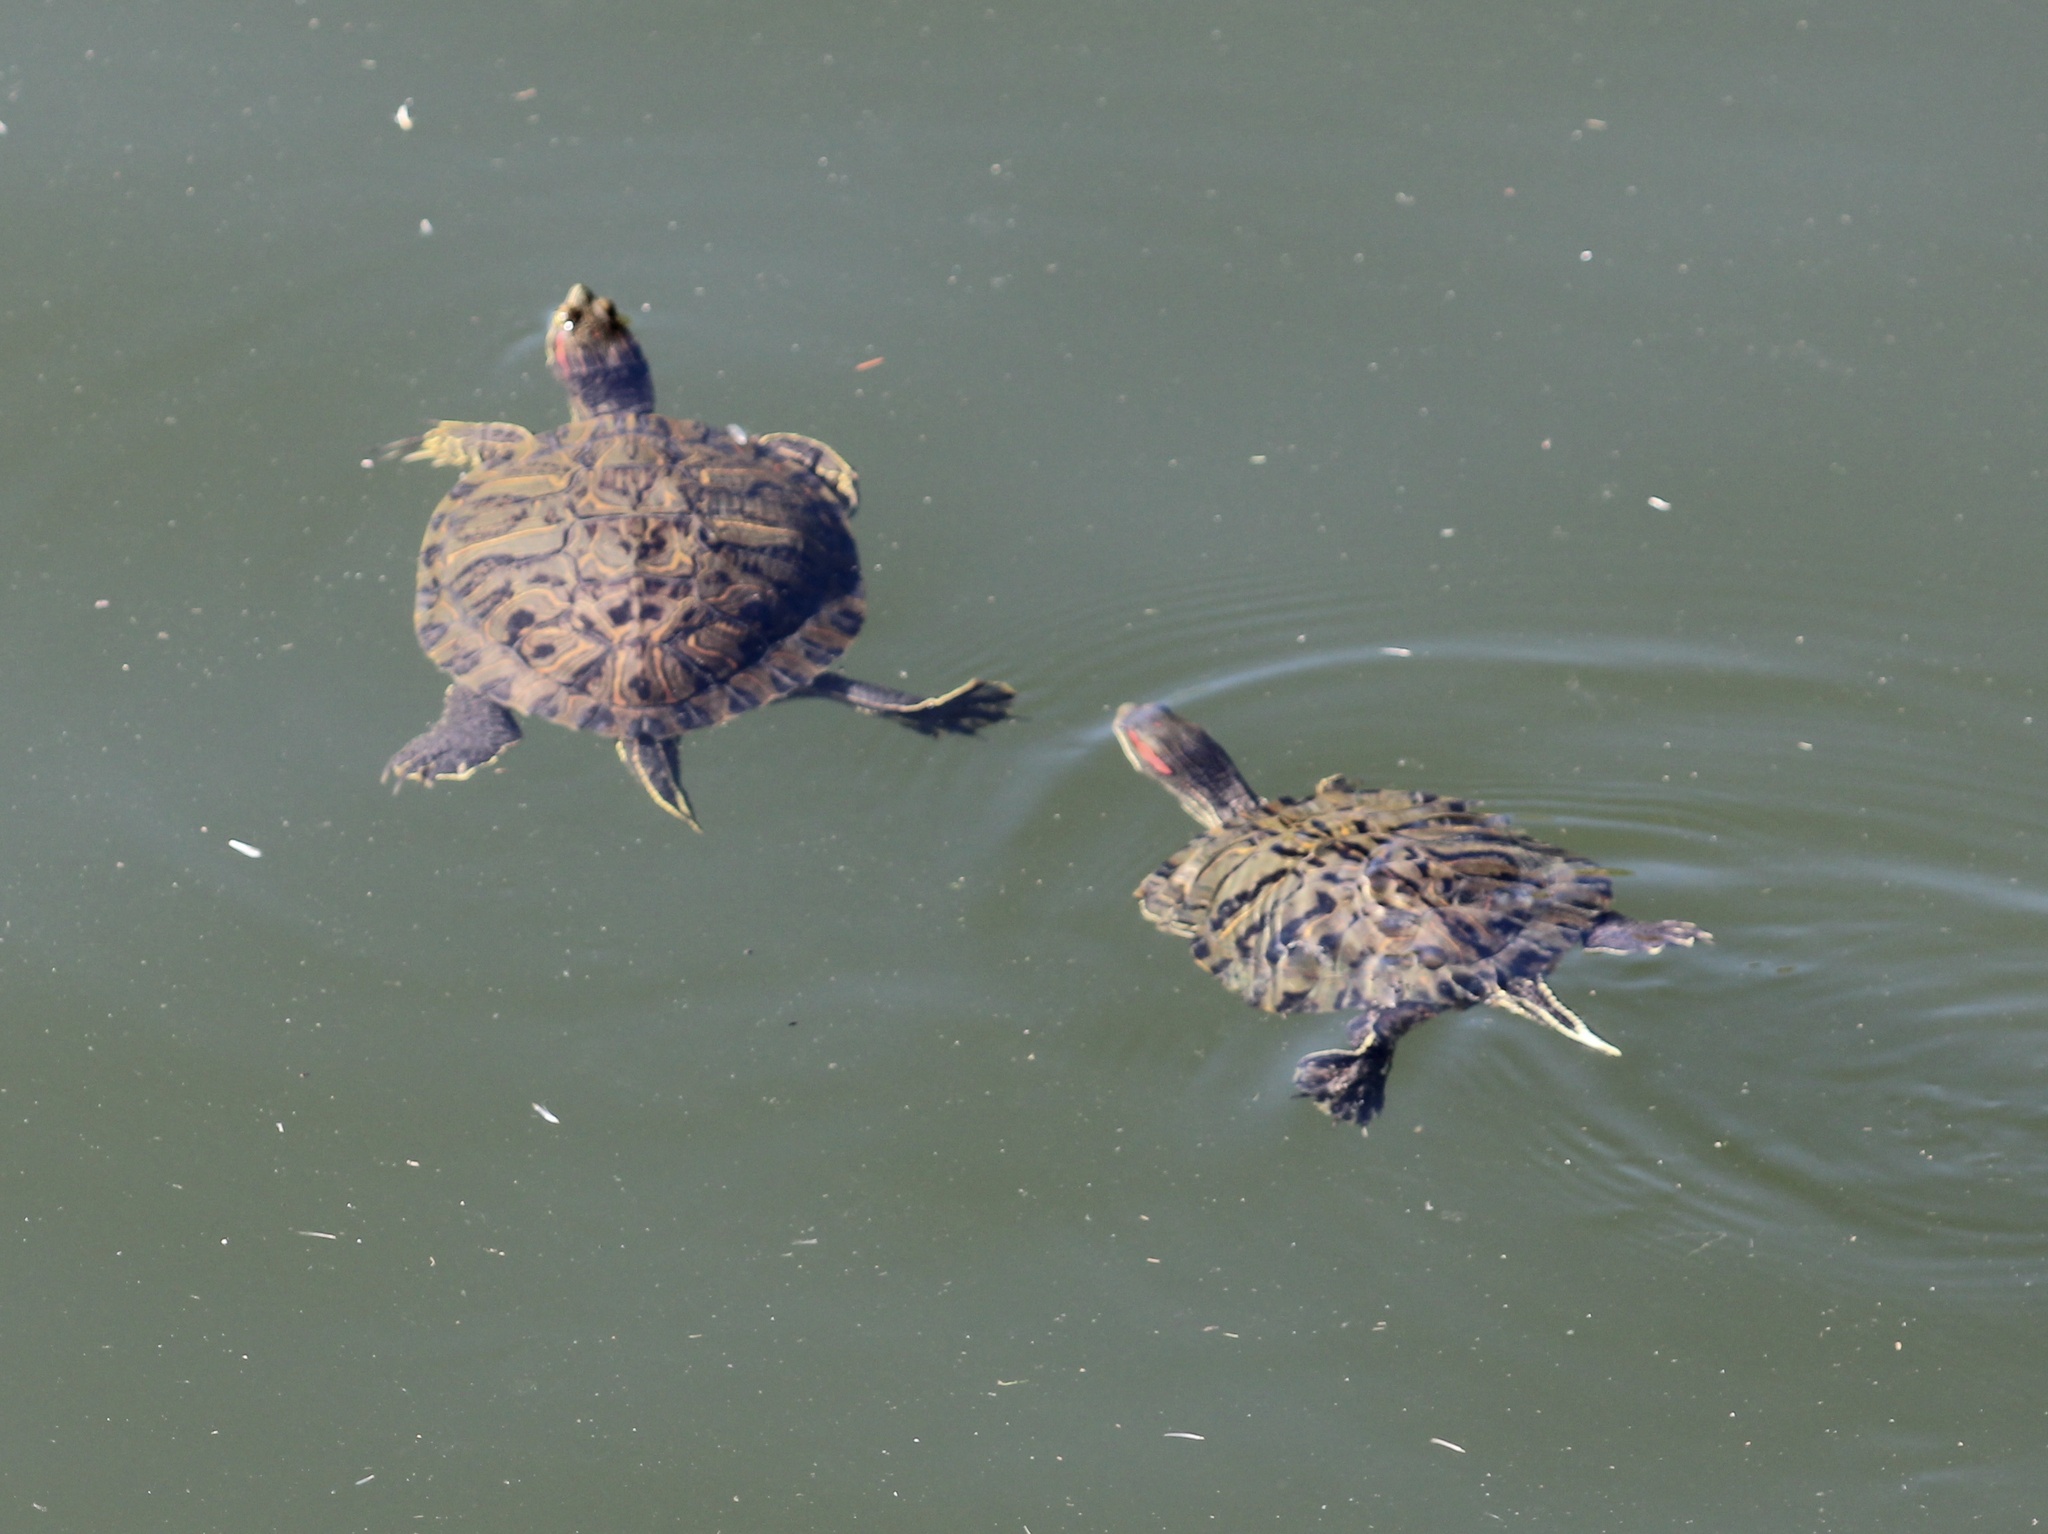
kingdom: Animalia
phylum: Chordata
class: Testudines
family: Emydidae
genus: Trachemys
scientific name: Trachemys scripta
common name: Slider
